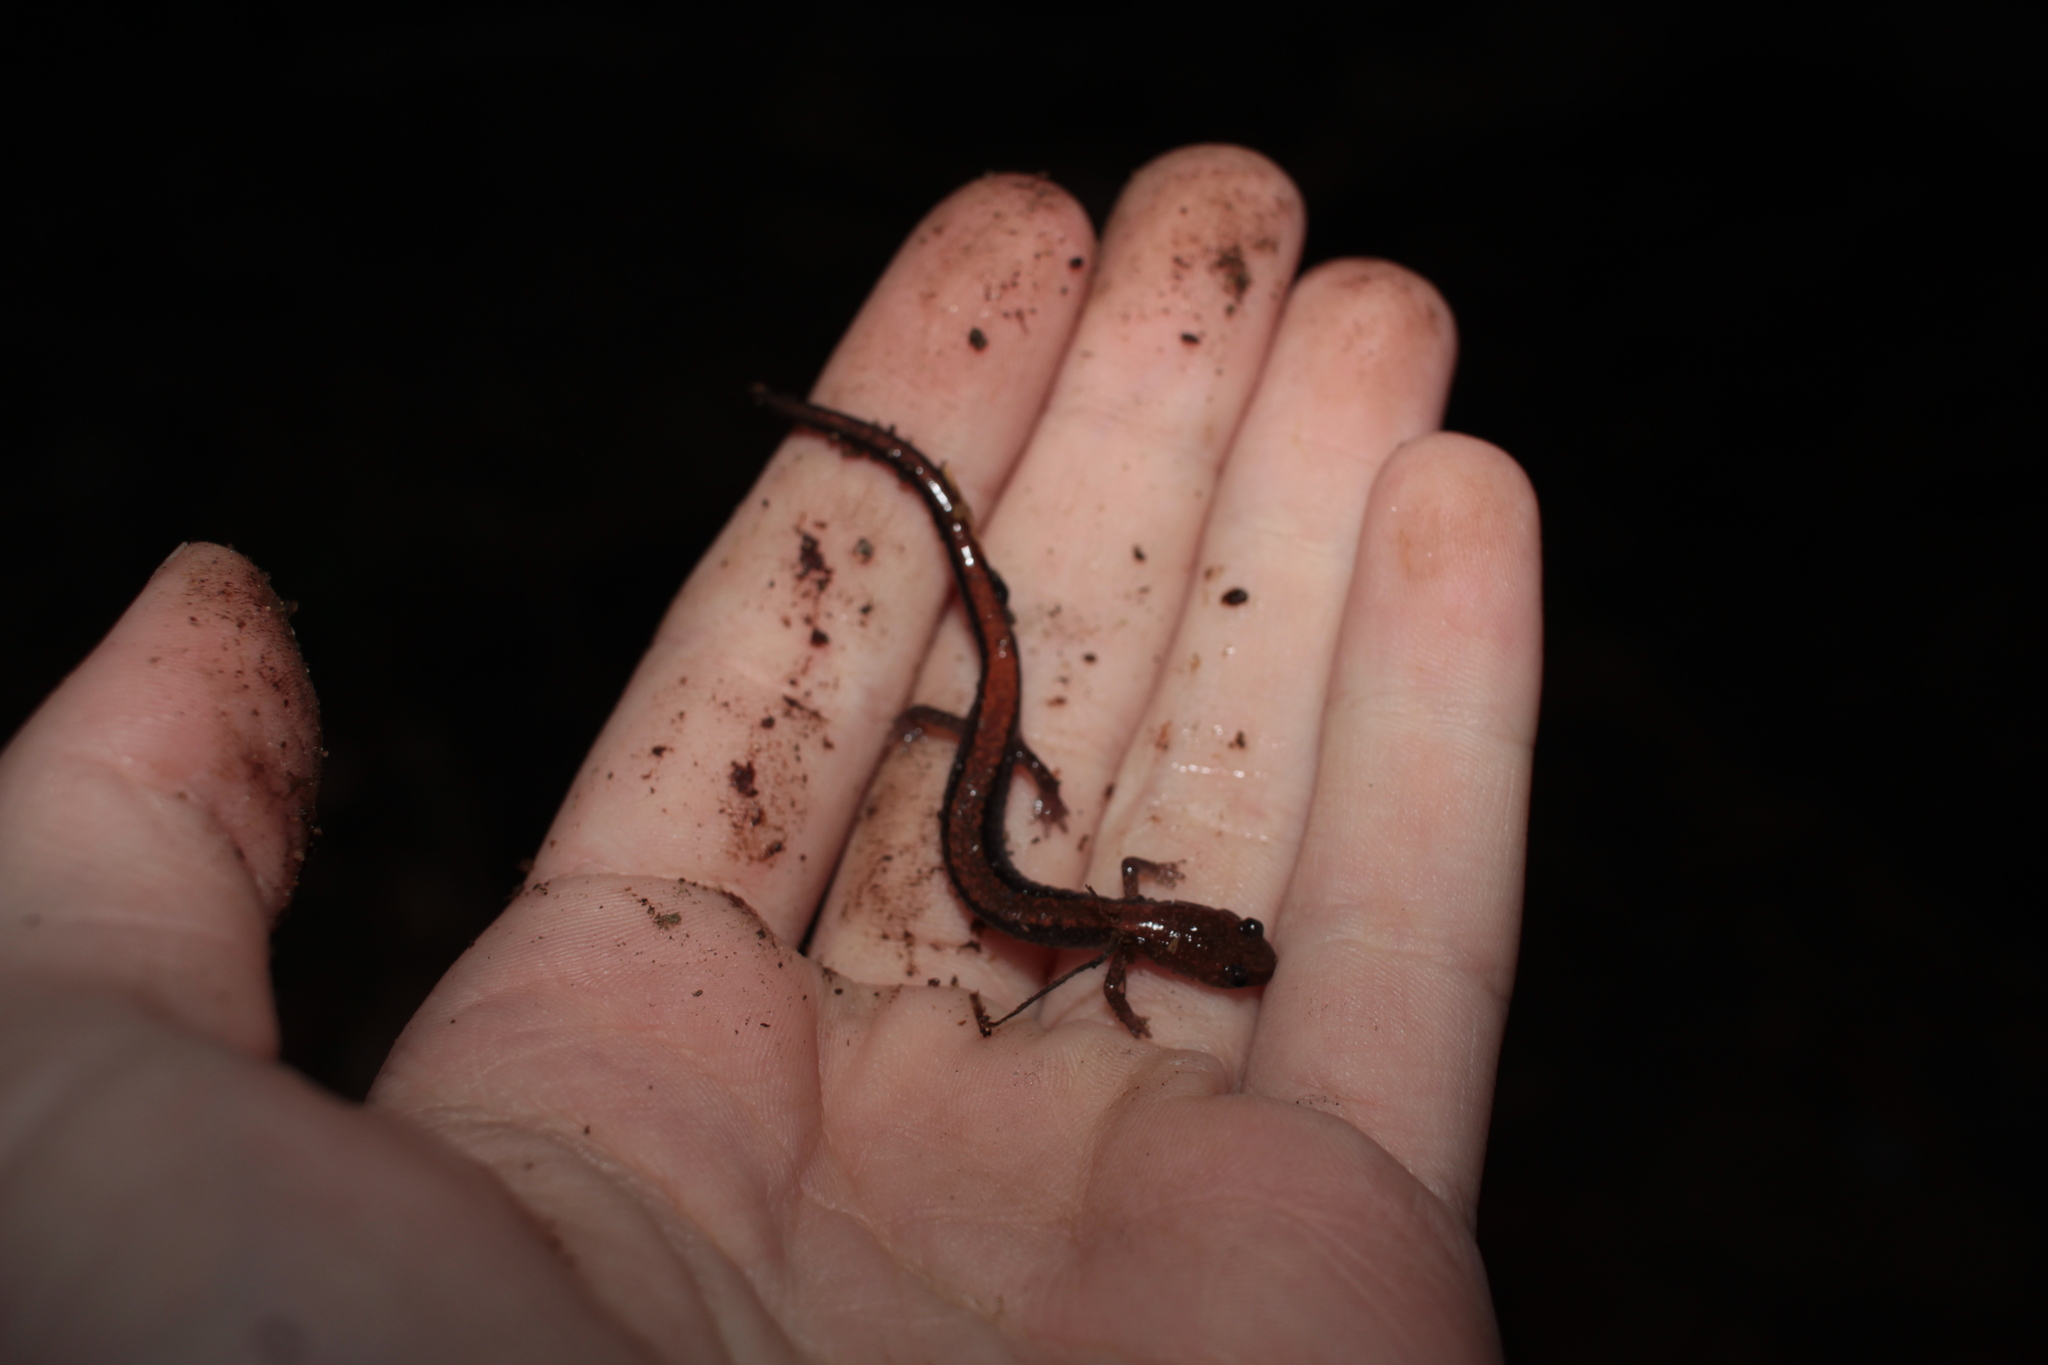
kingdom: Animalia
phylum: Chordata
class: Amphibia
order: Caudata
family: Plethodontidae
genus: Plethodon
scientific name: Plethodon cinereus
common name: Redback salamander
